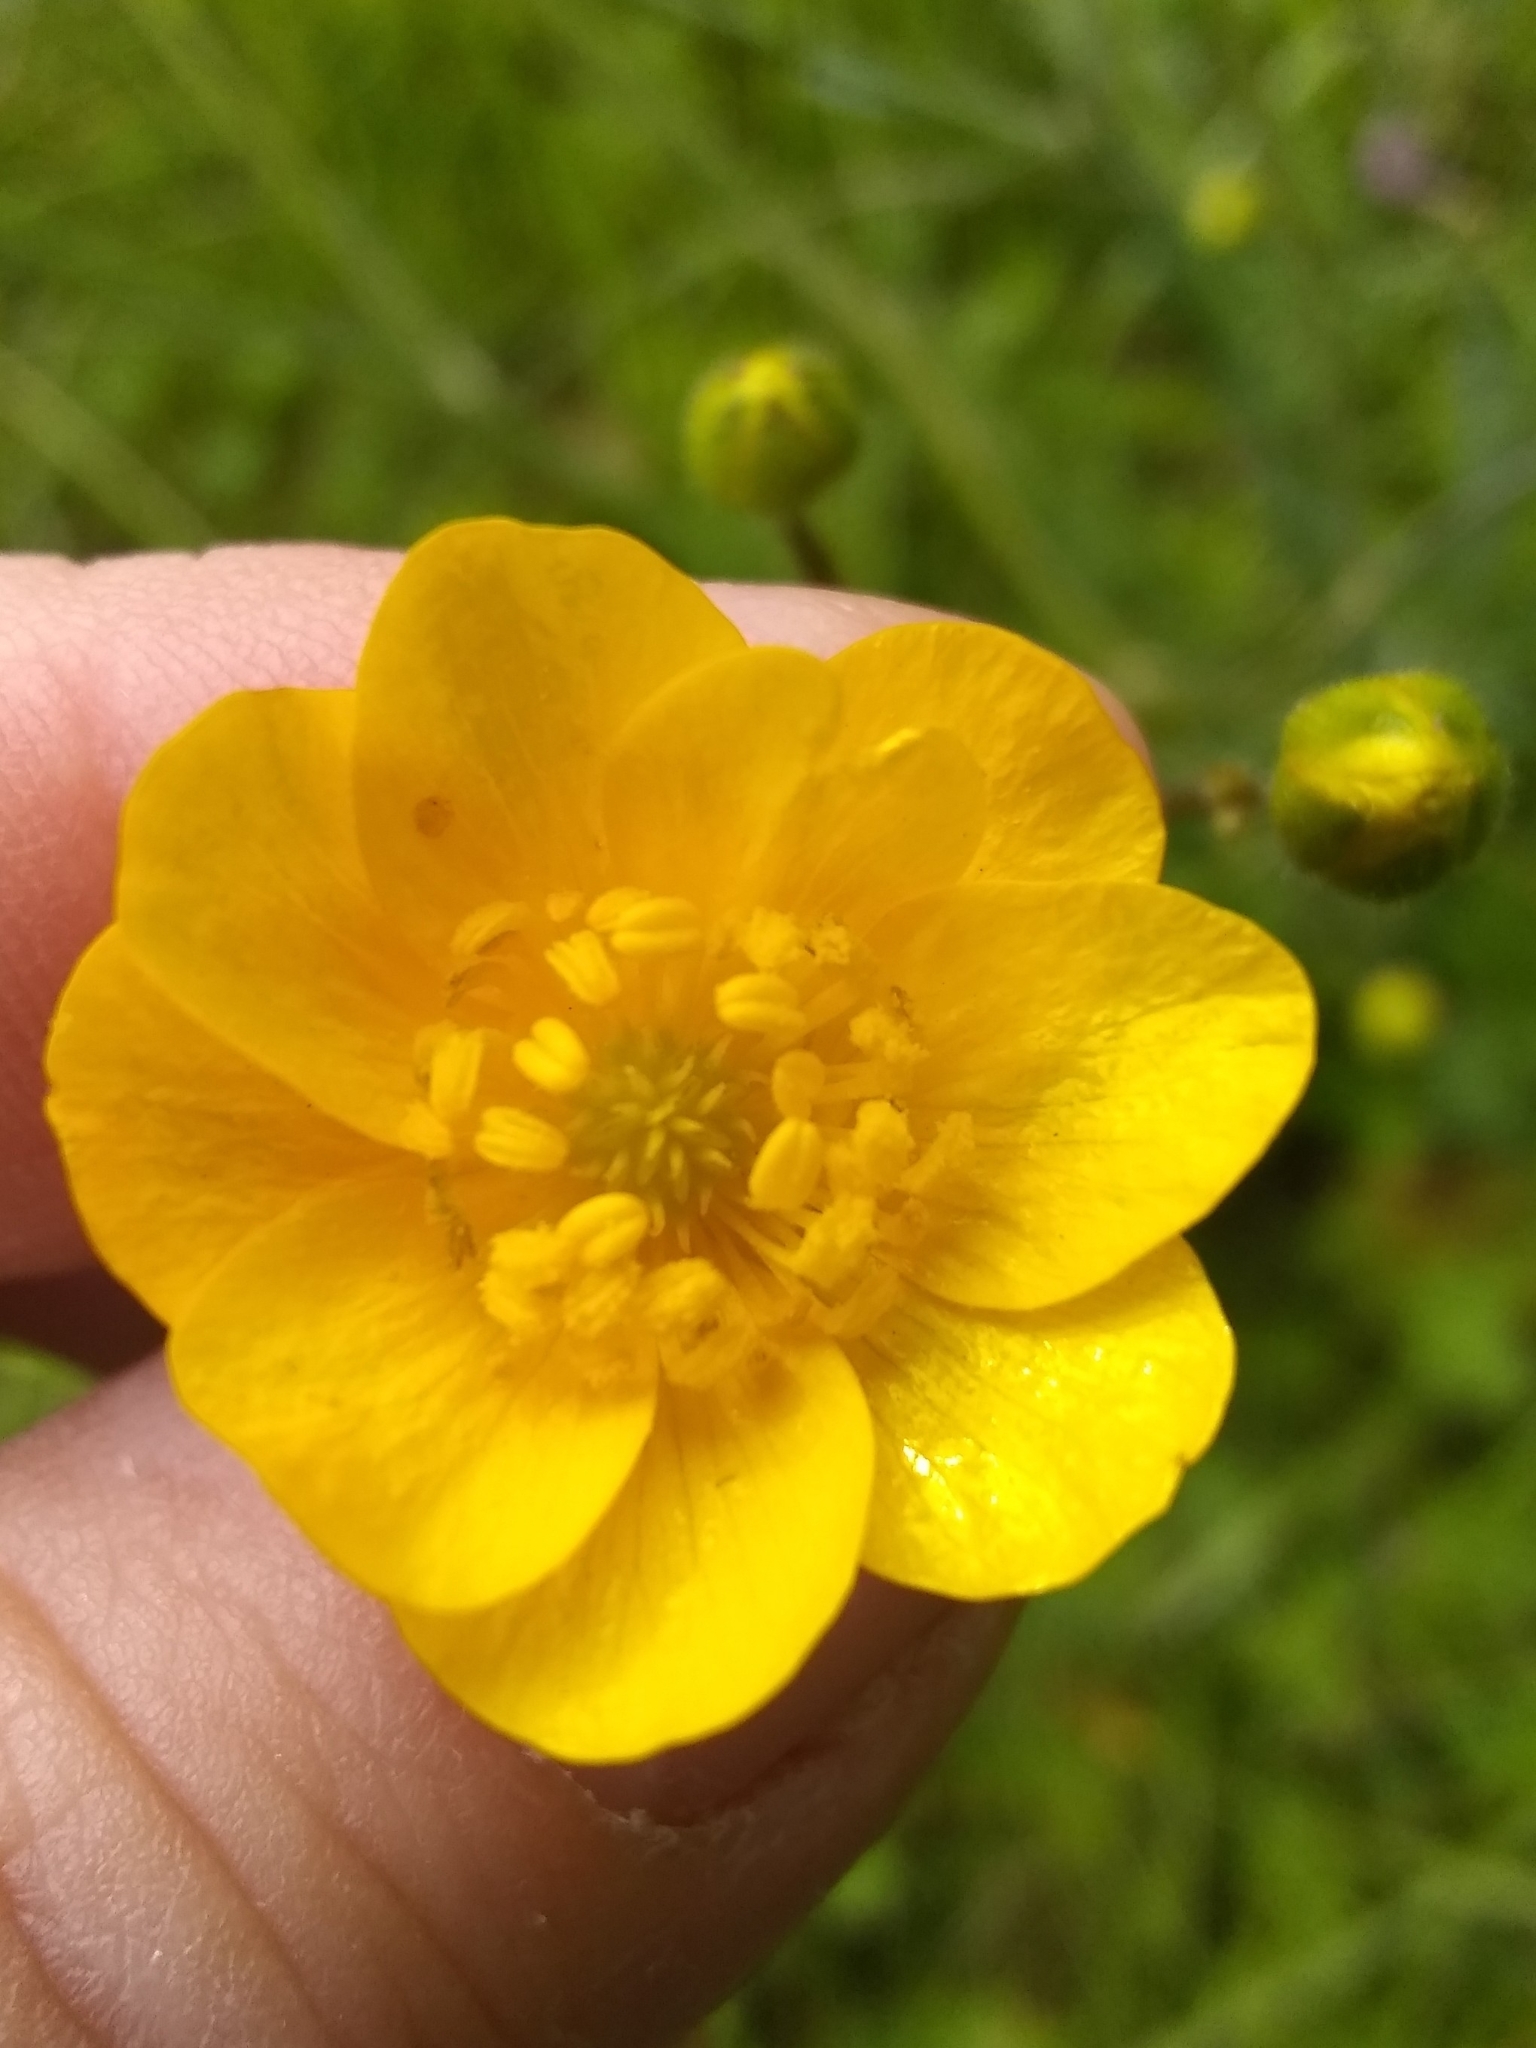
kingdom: Plantae
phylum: Tracheophyta
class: Magnoliopsida
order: Ranunculales
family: Ranunculaceae
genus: Ranunculus
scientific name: Ranunculus californicus
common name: California buttercup
